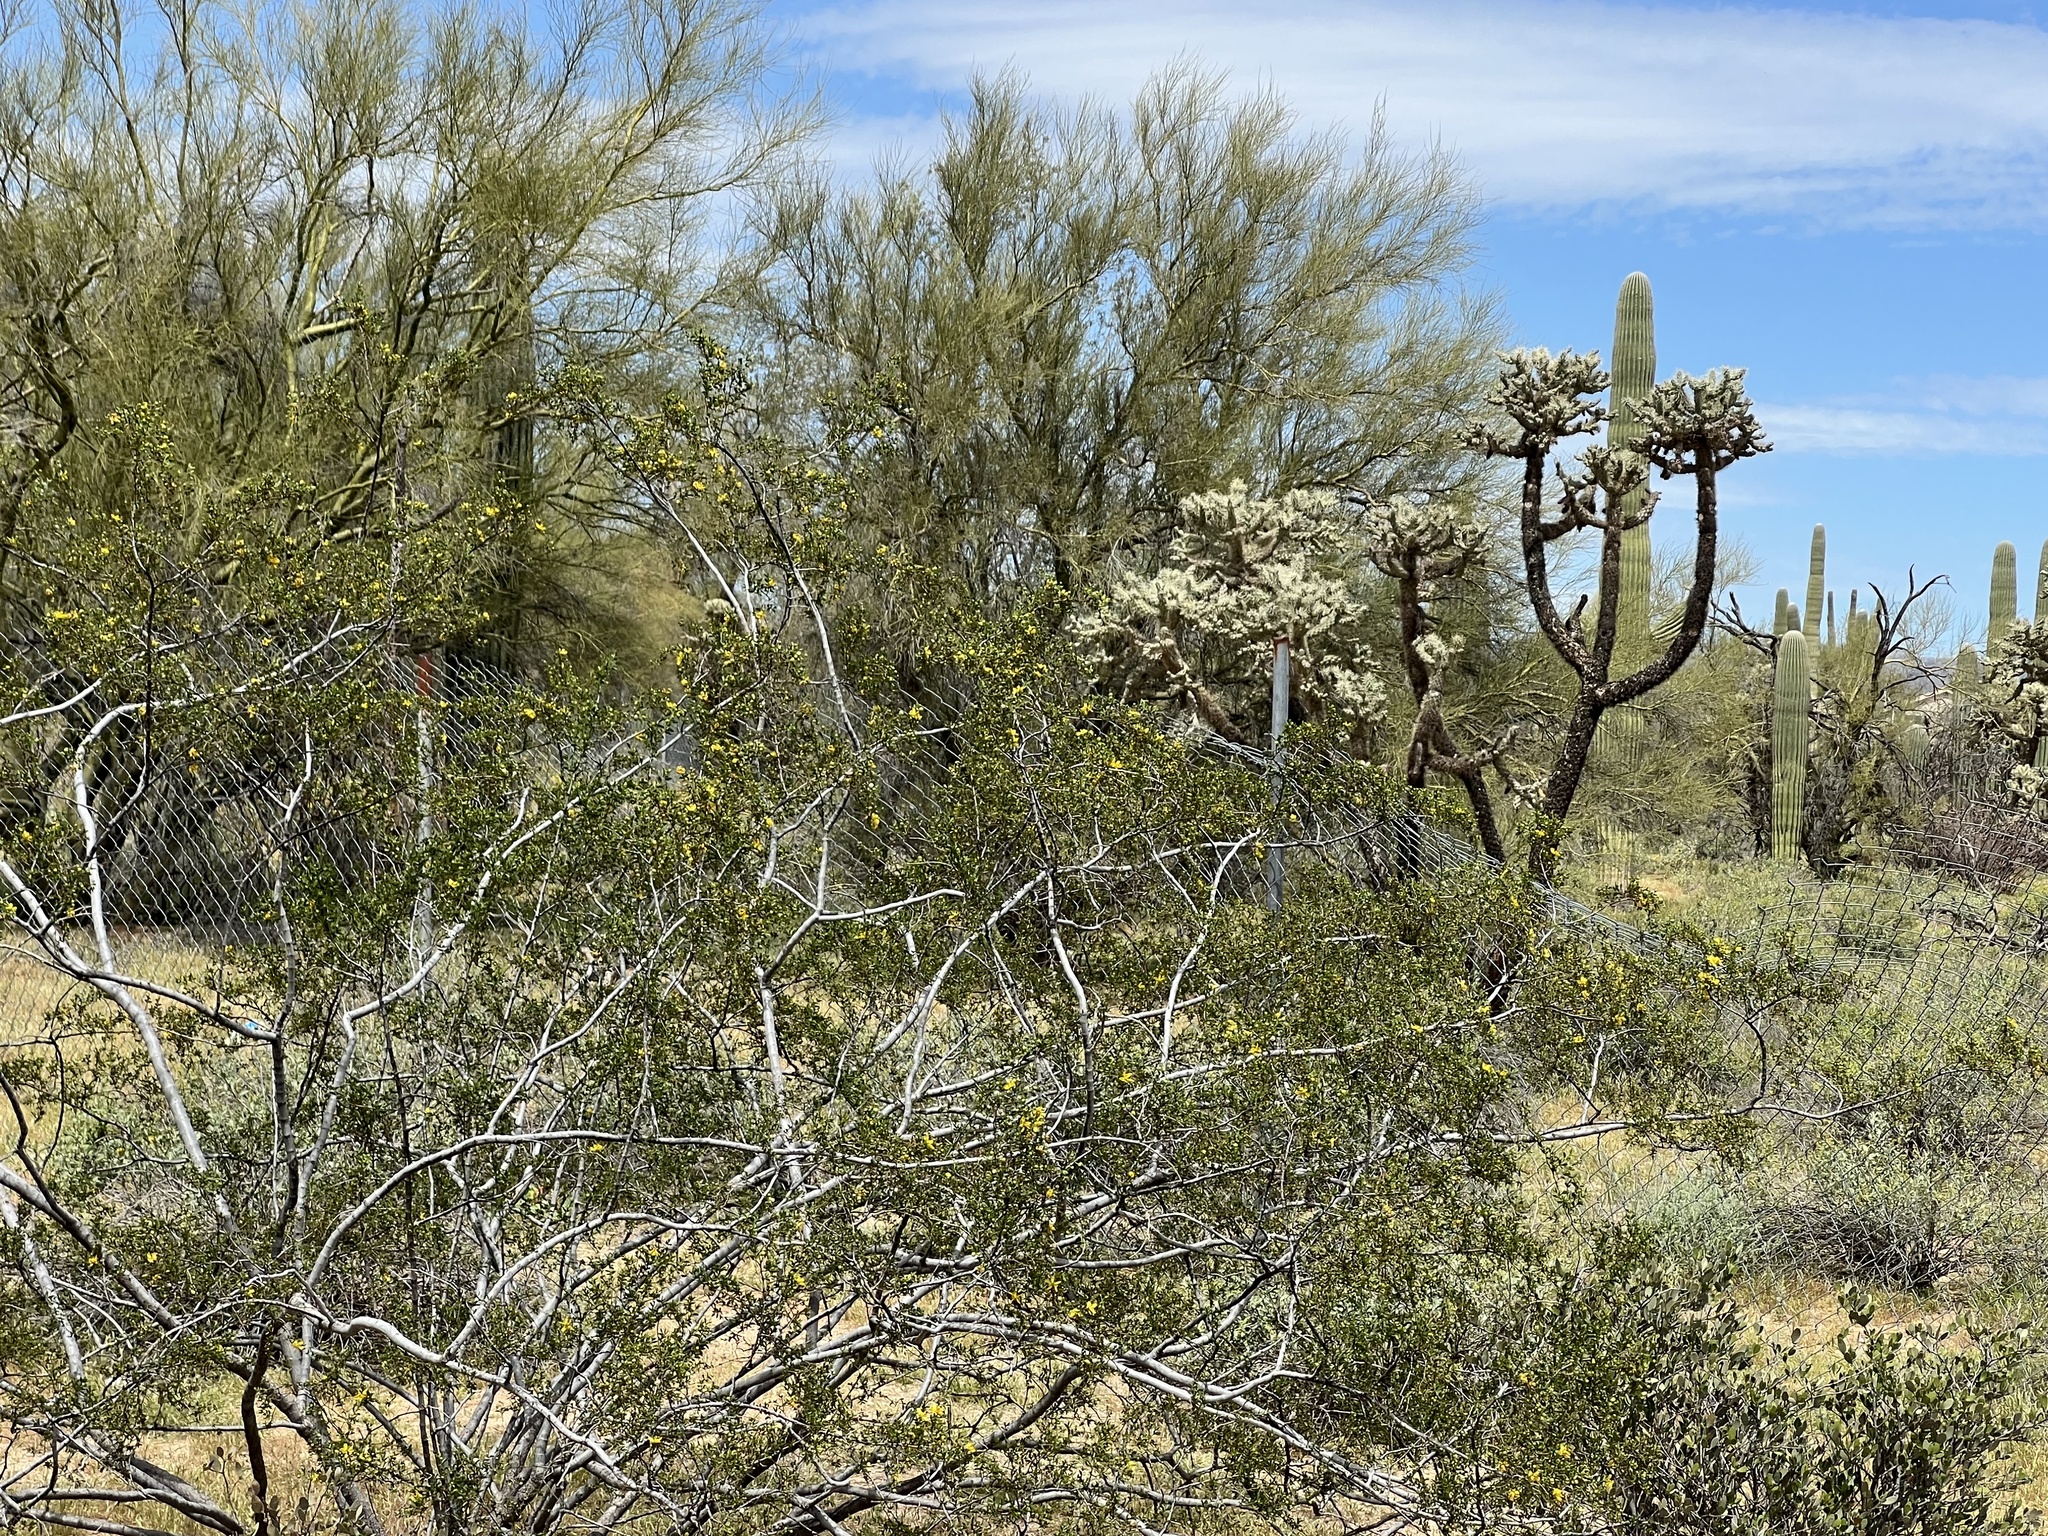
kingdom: Plantae
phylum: Tracheophyta
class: Magnoliopsida
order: Zygophyllales
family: Zygophyllaceae
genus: Larrea
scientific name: Larrea tridentata
